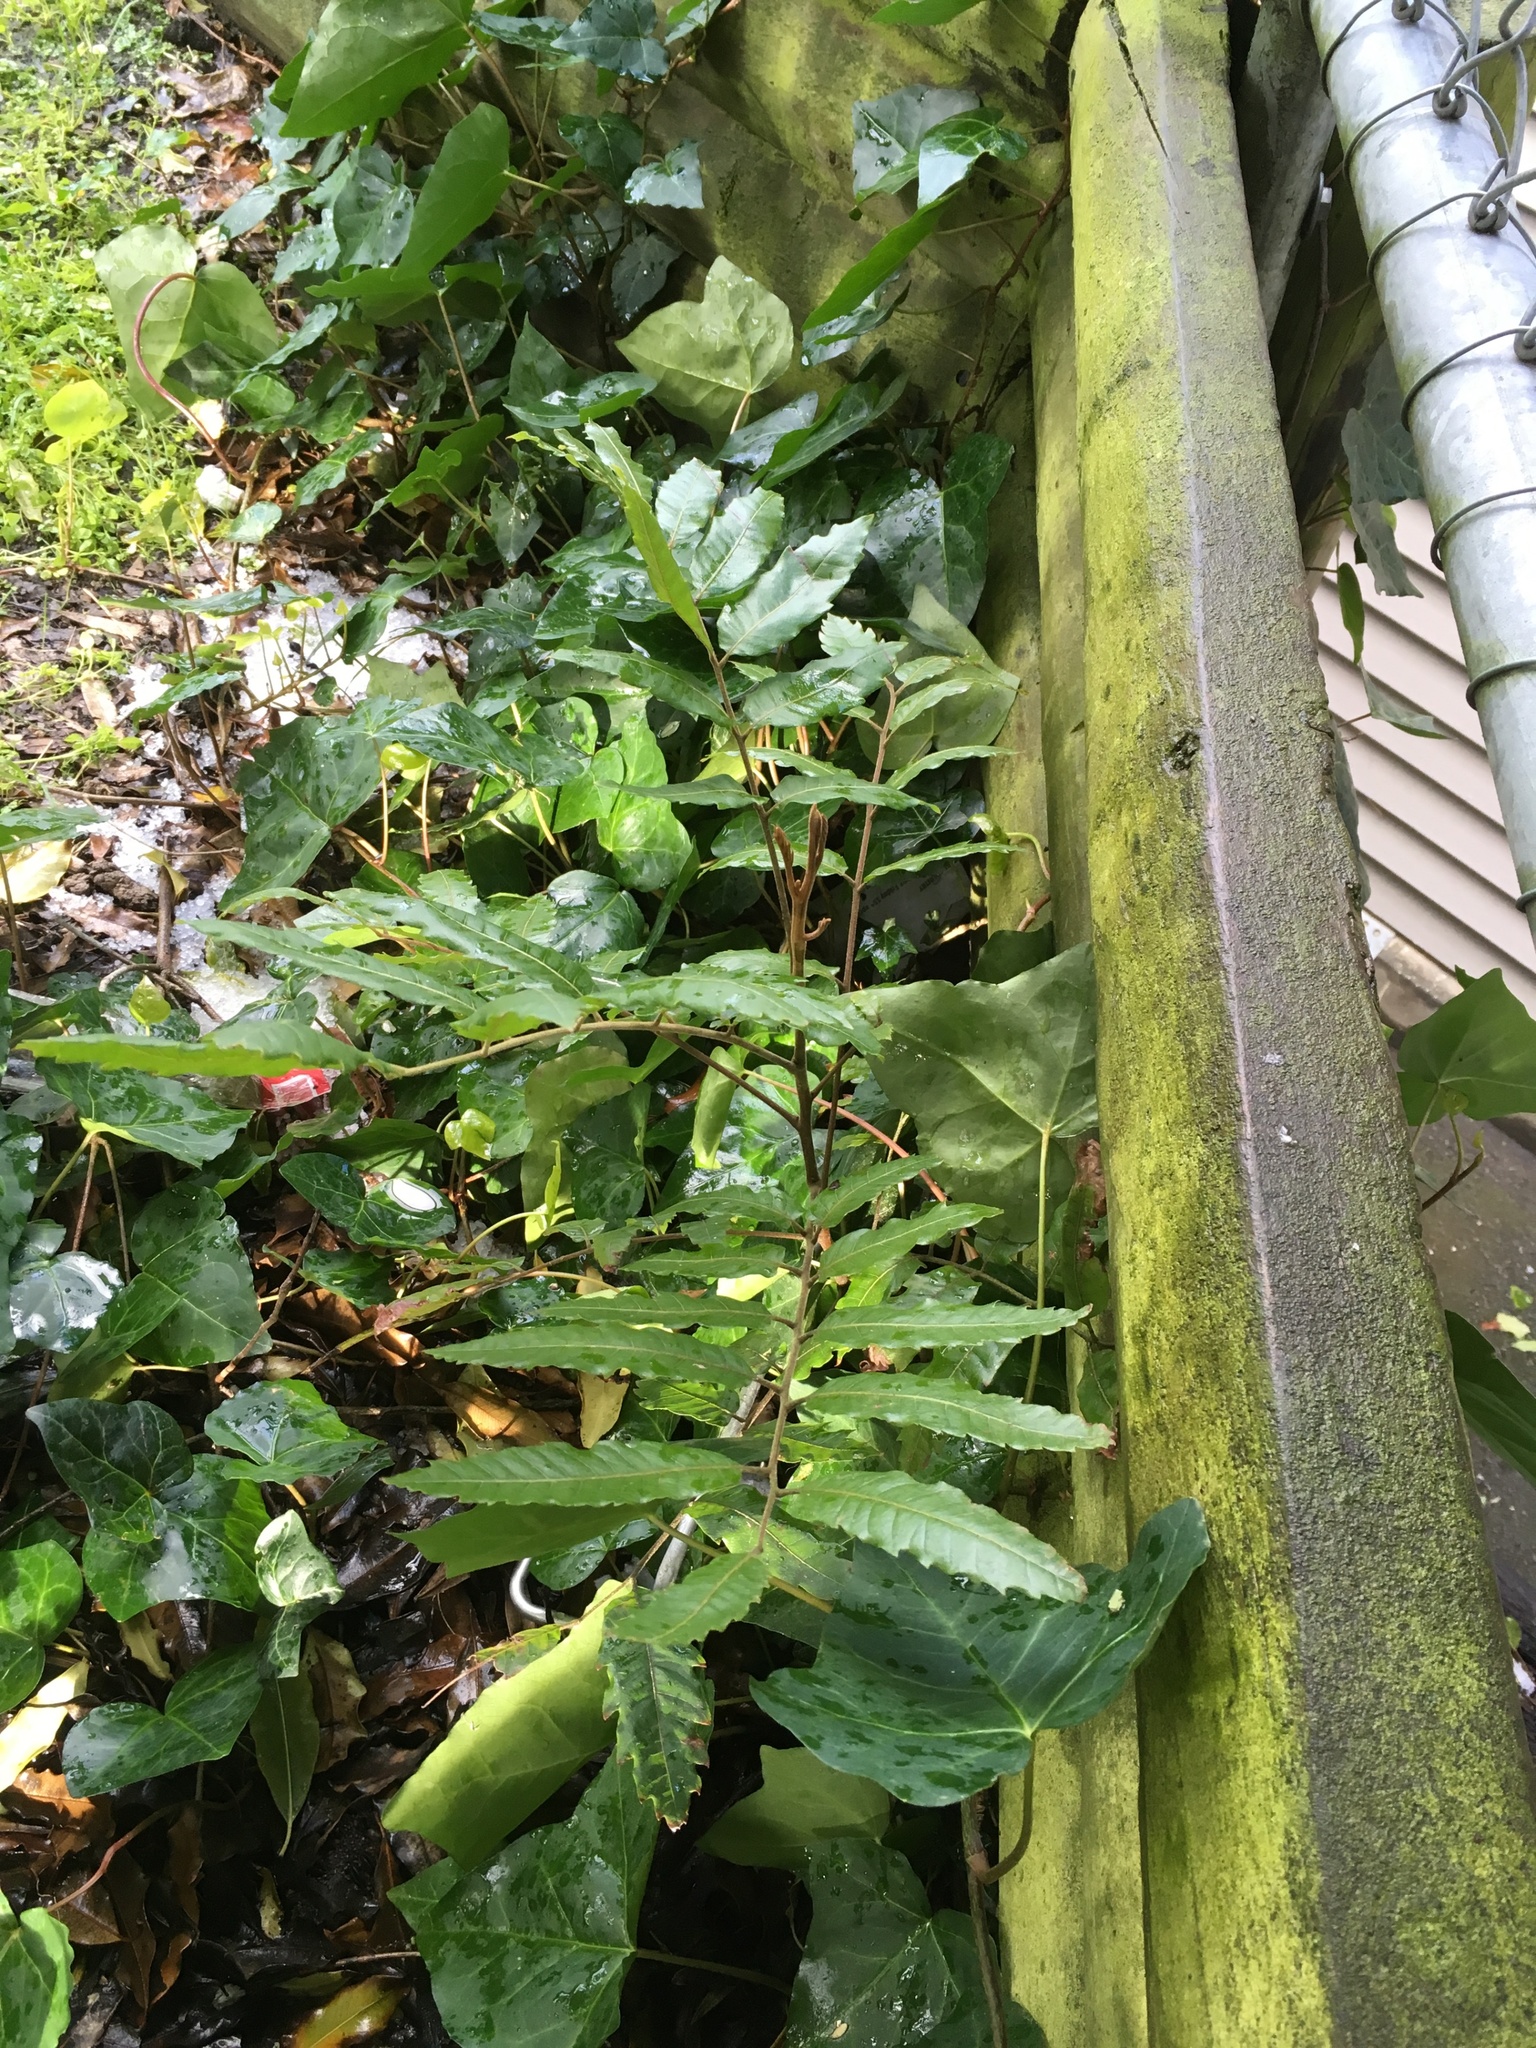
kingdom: Plantae
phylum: Tracheophyta
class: Magnoliopsida
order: Sapindales
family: Sapindaceae
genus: Alectryon
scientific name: Alectryon excelsus
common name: Three kings titoki
